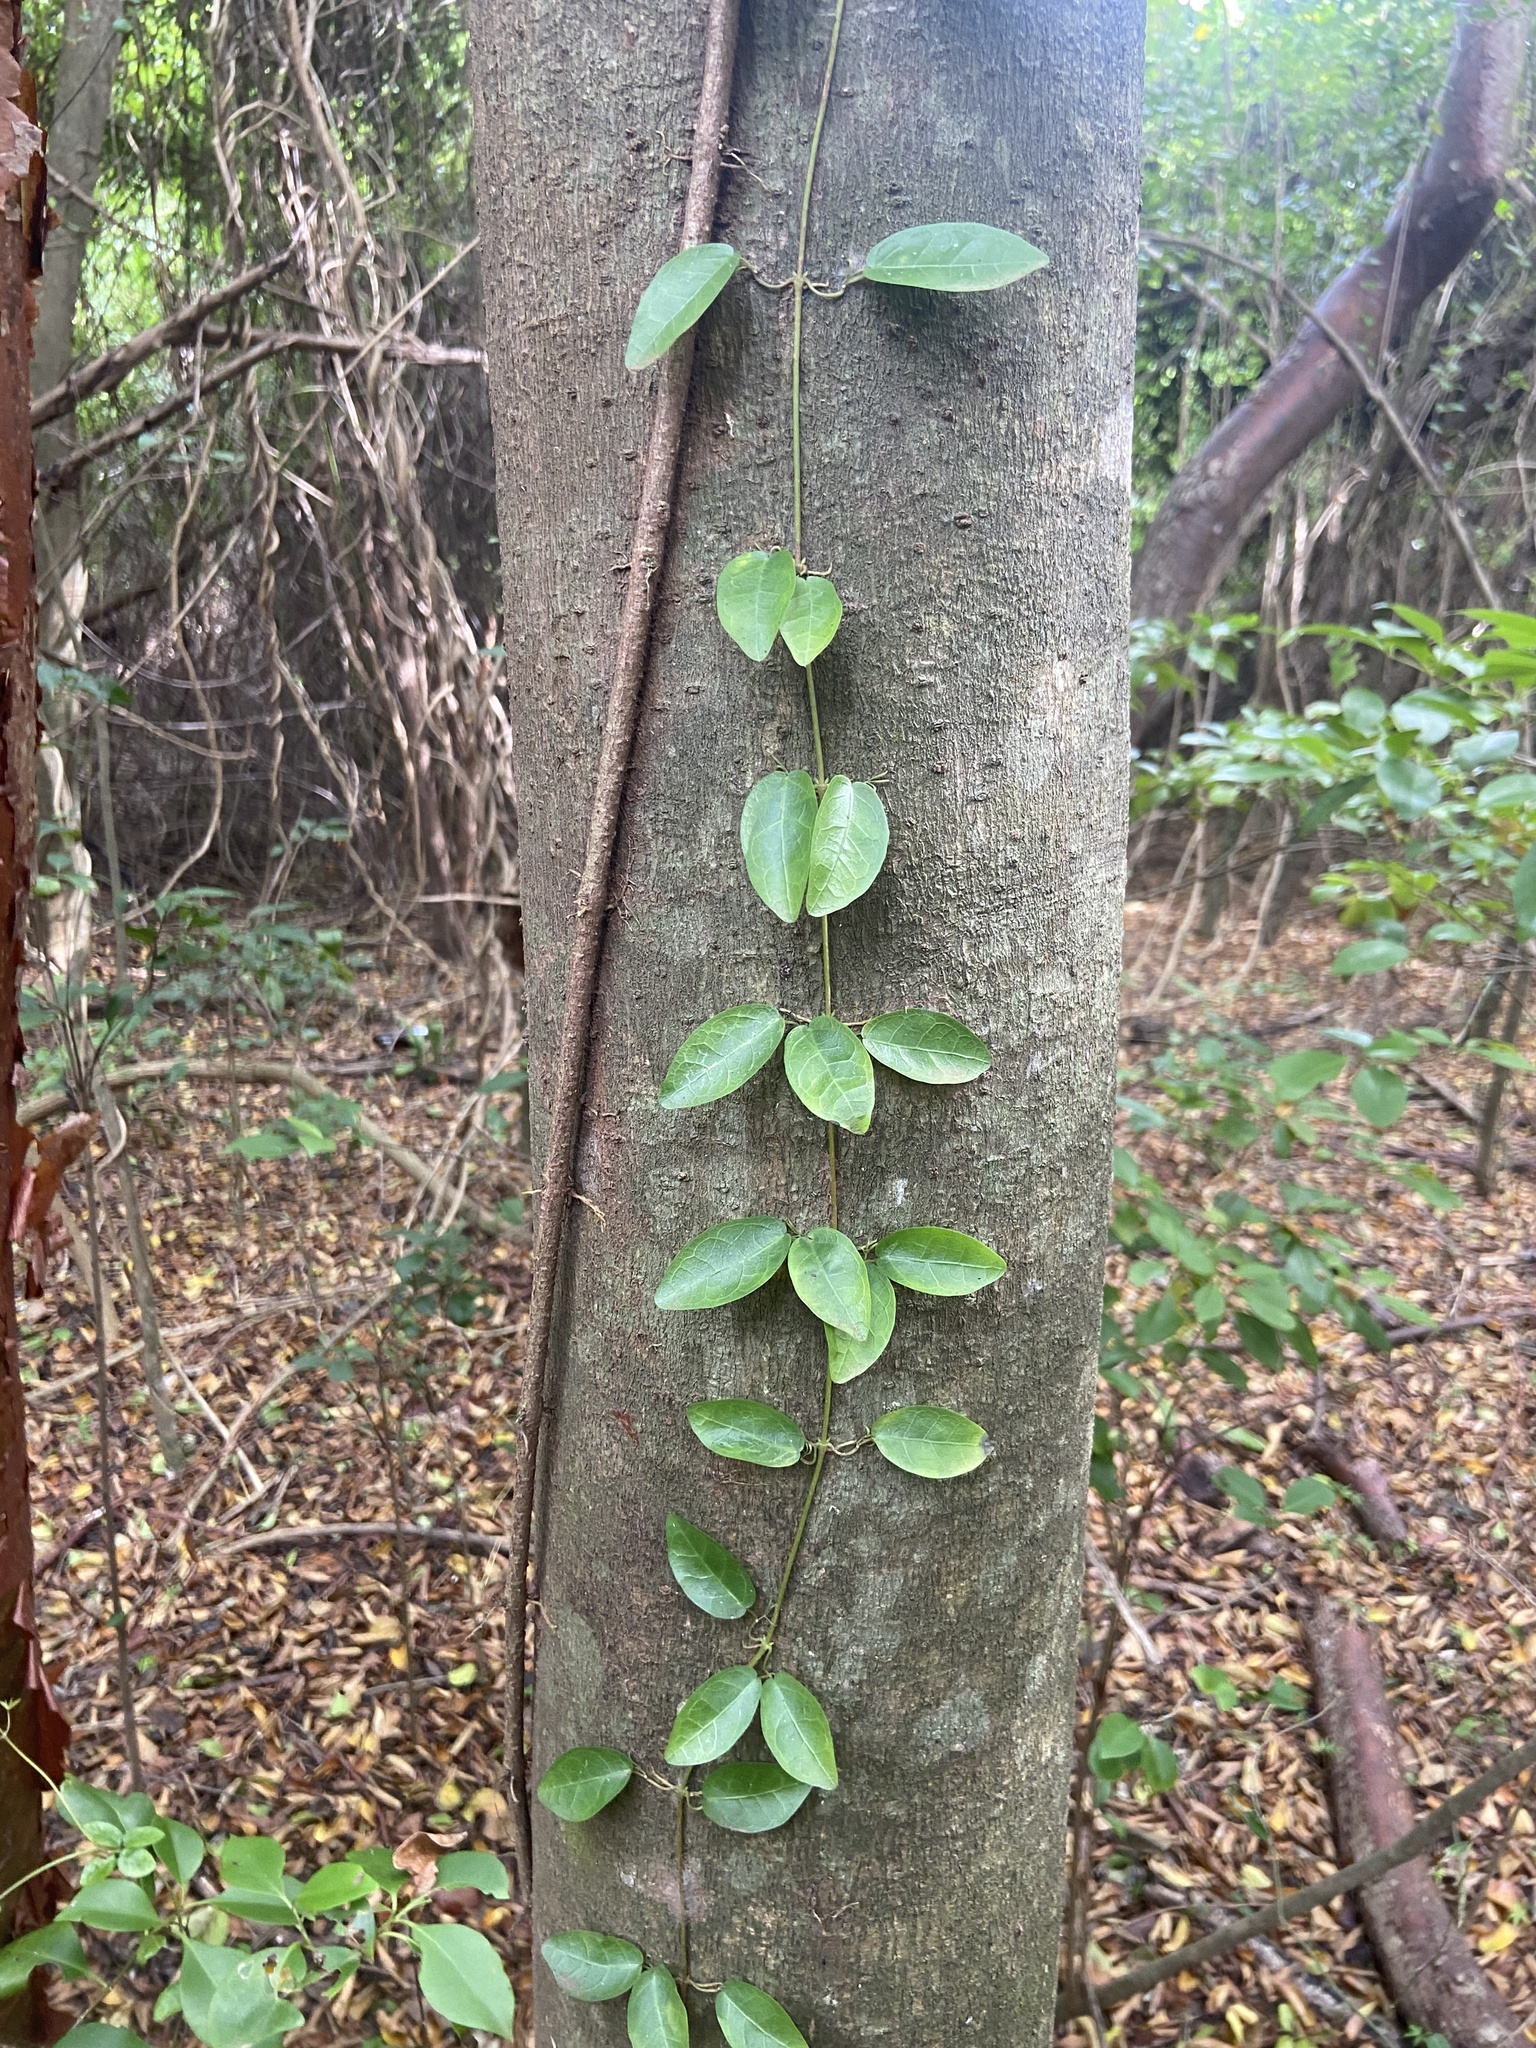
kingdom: Plantae
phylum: Tracheophyta
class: Magnoliopsida
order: Lamiales
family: Bignoniaceae
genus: Dolichandra
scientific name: Dolichandra unguis-cati
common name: Catclaw vine
